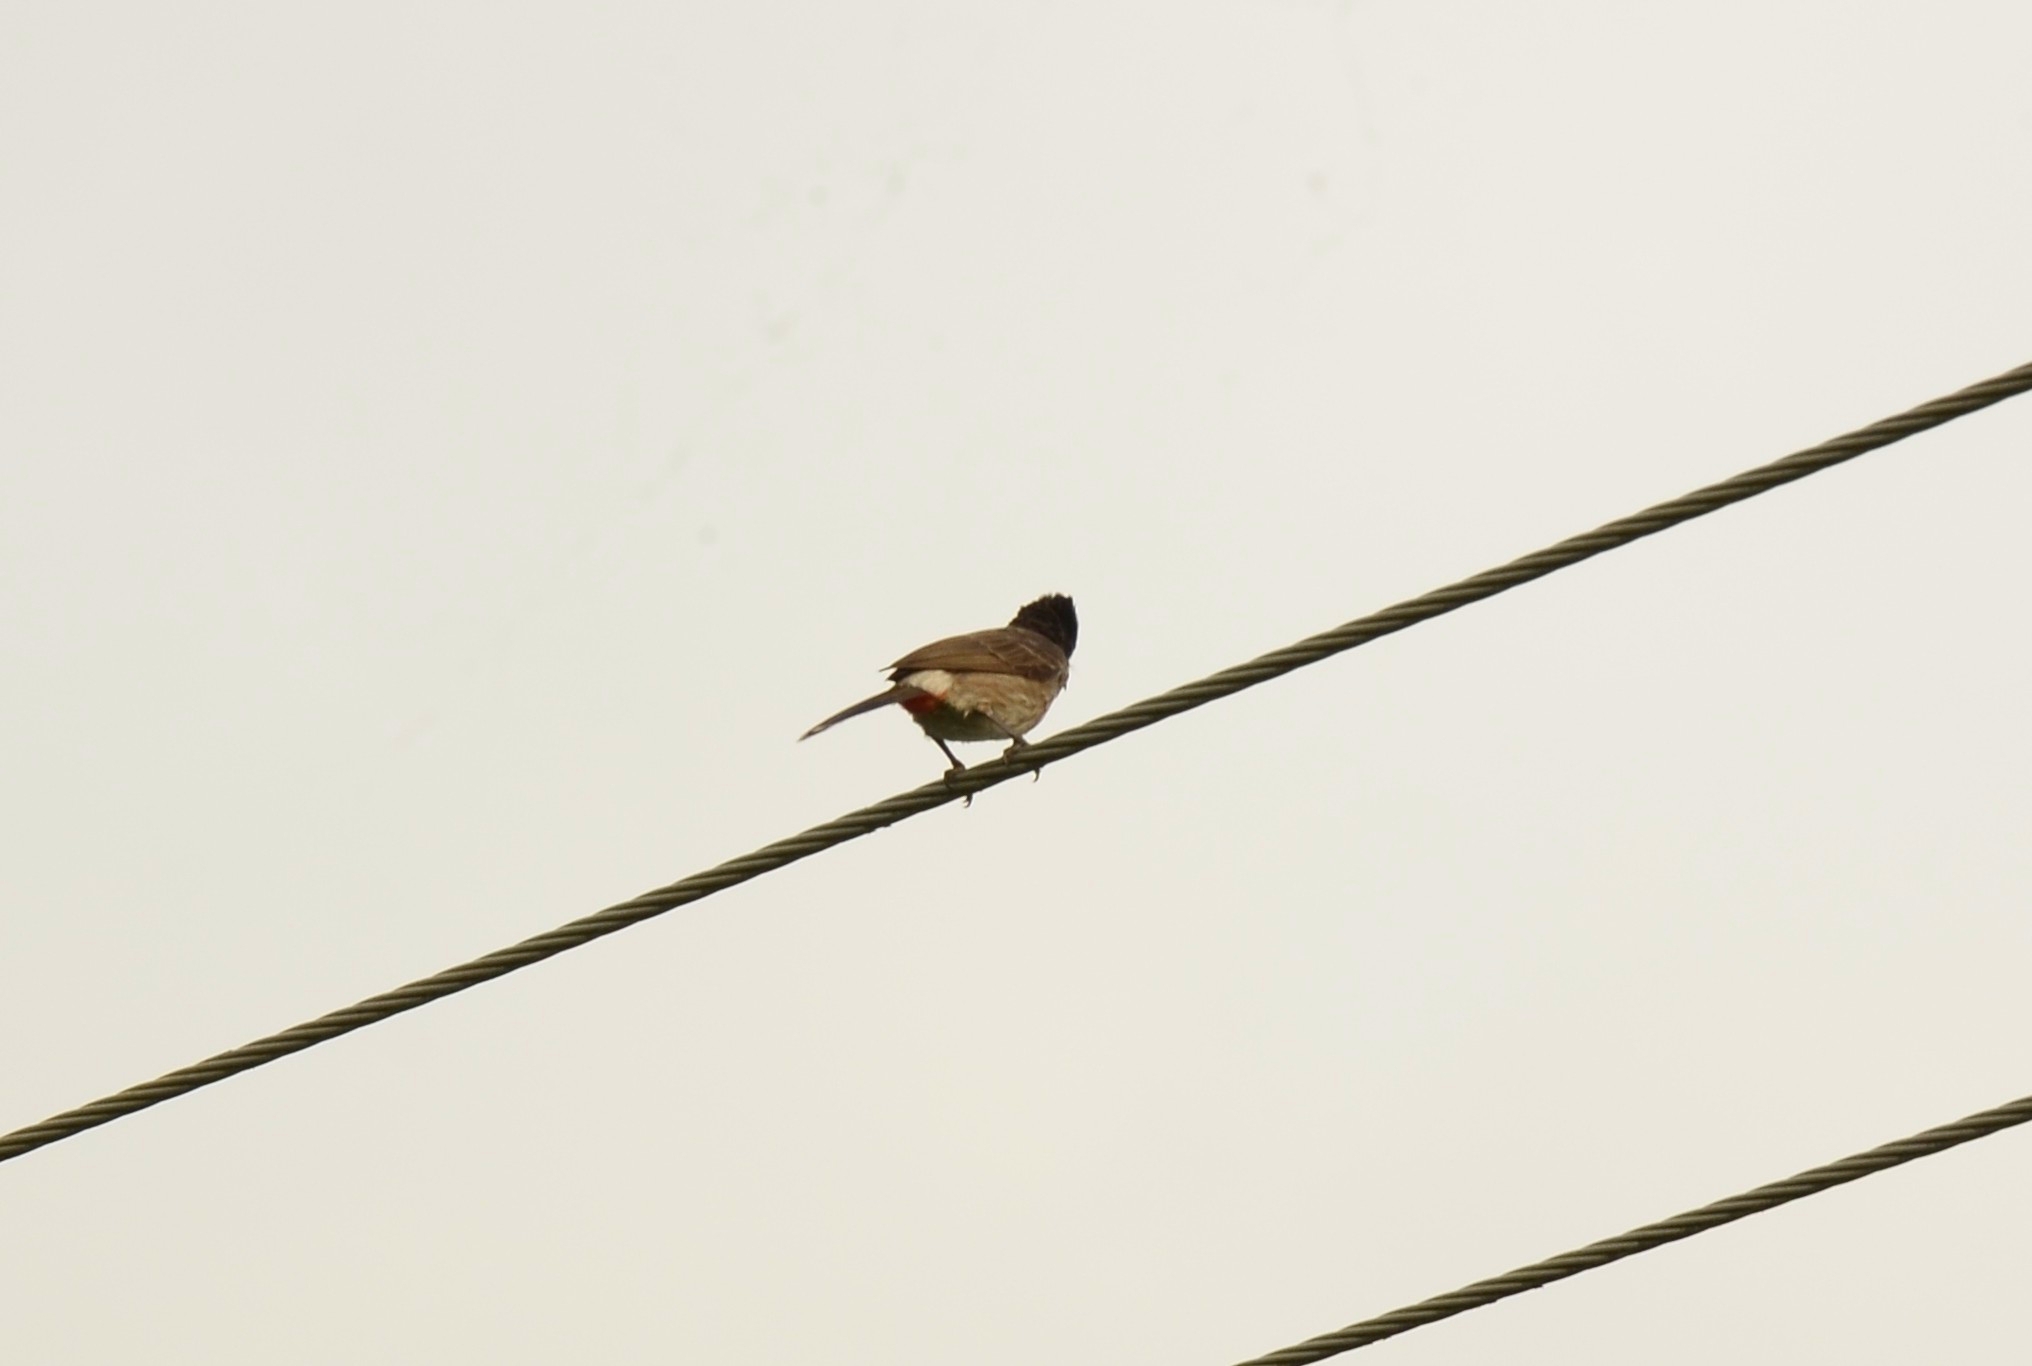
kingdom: Animalia
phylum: Chordata
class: Aves
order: Passeriformes
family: Pycnonotidae
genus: Pycnonotus
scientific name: Pycnonotus cafer
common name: Red-vented bulbul
